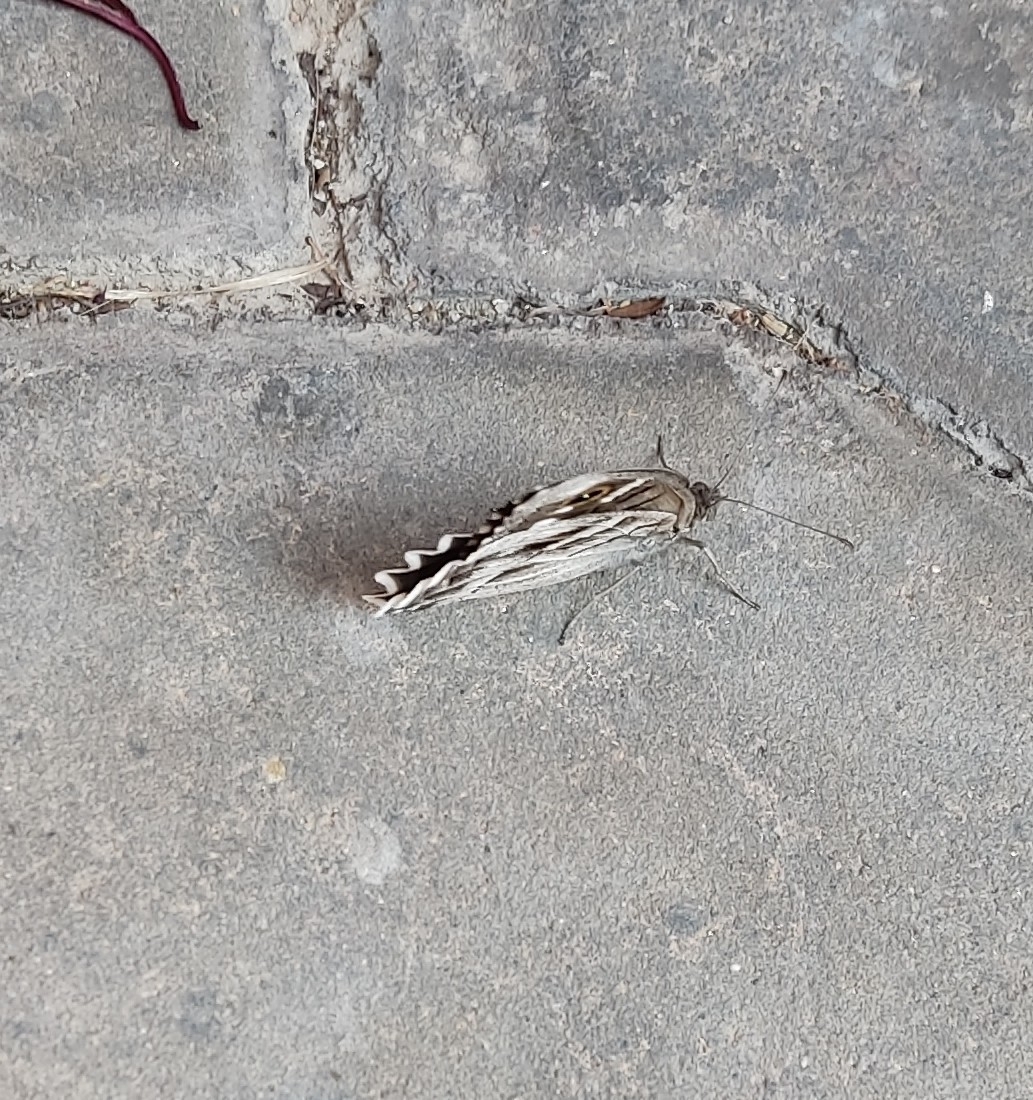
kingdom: Animalia
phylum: Arthropoda
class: Insecta
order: Lepidoptera
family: Nymphalidae
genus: Hipparchia
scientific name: Hipparchia fidia
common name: Striped grayling
